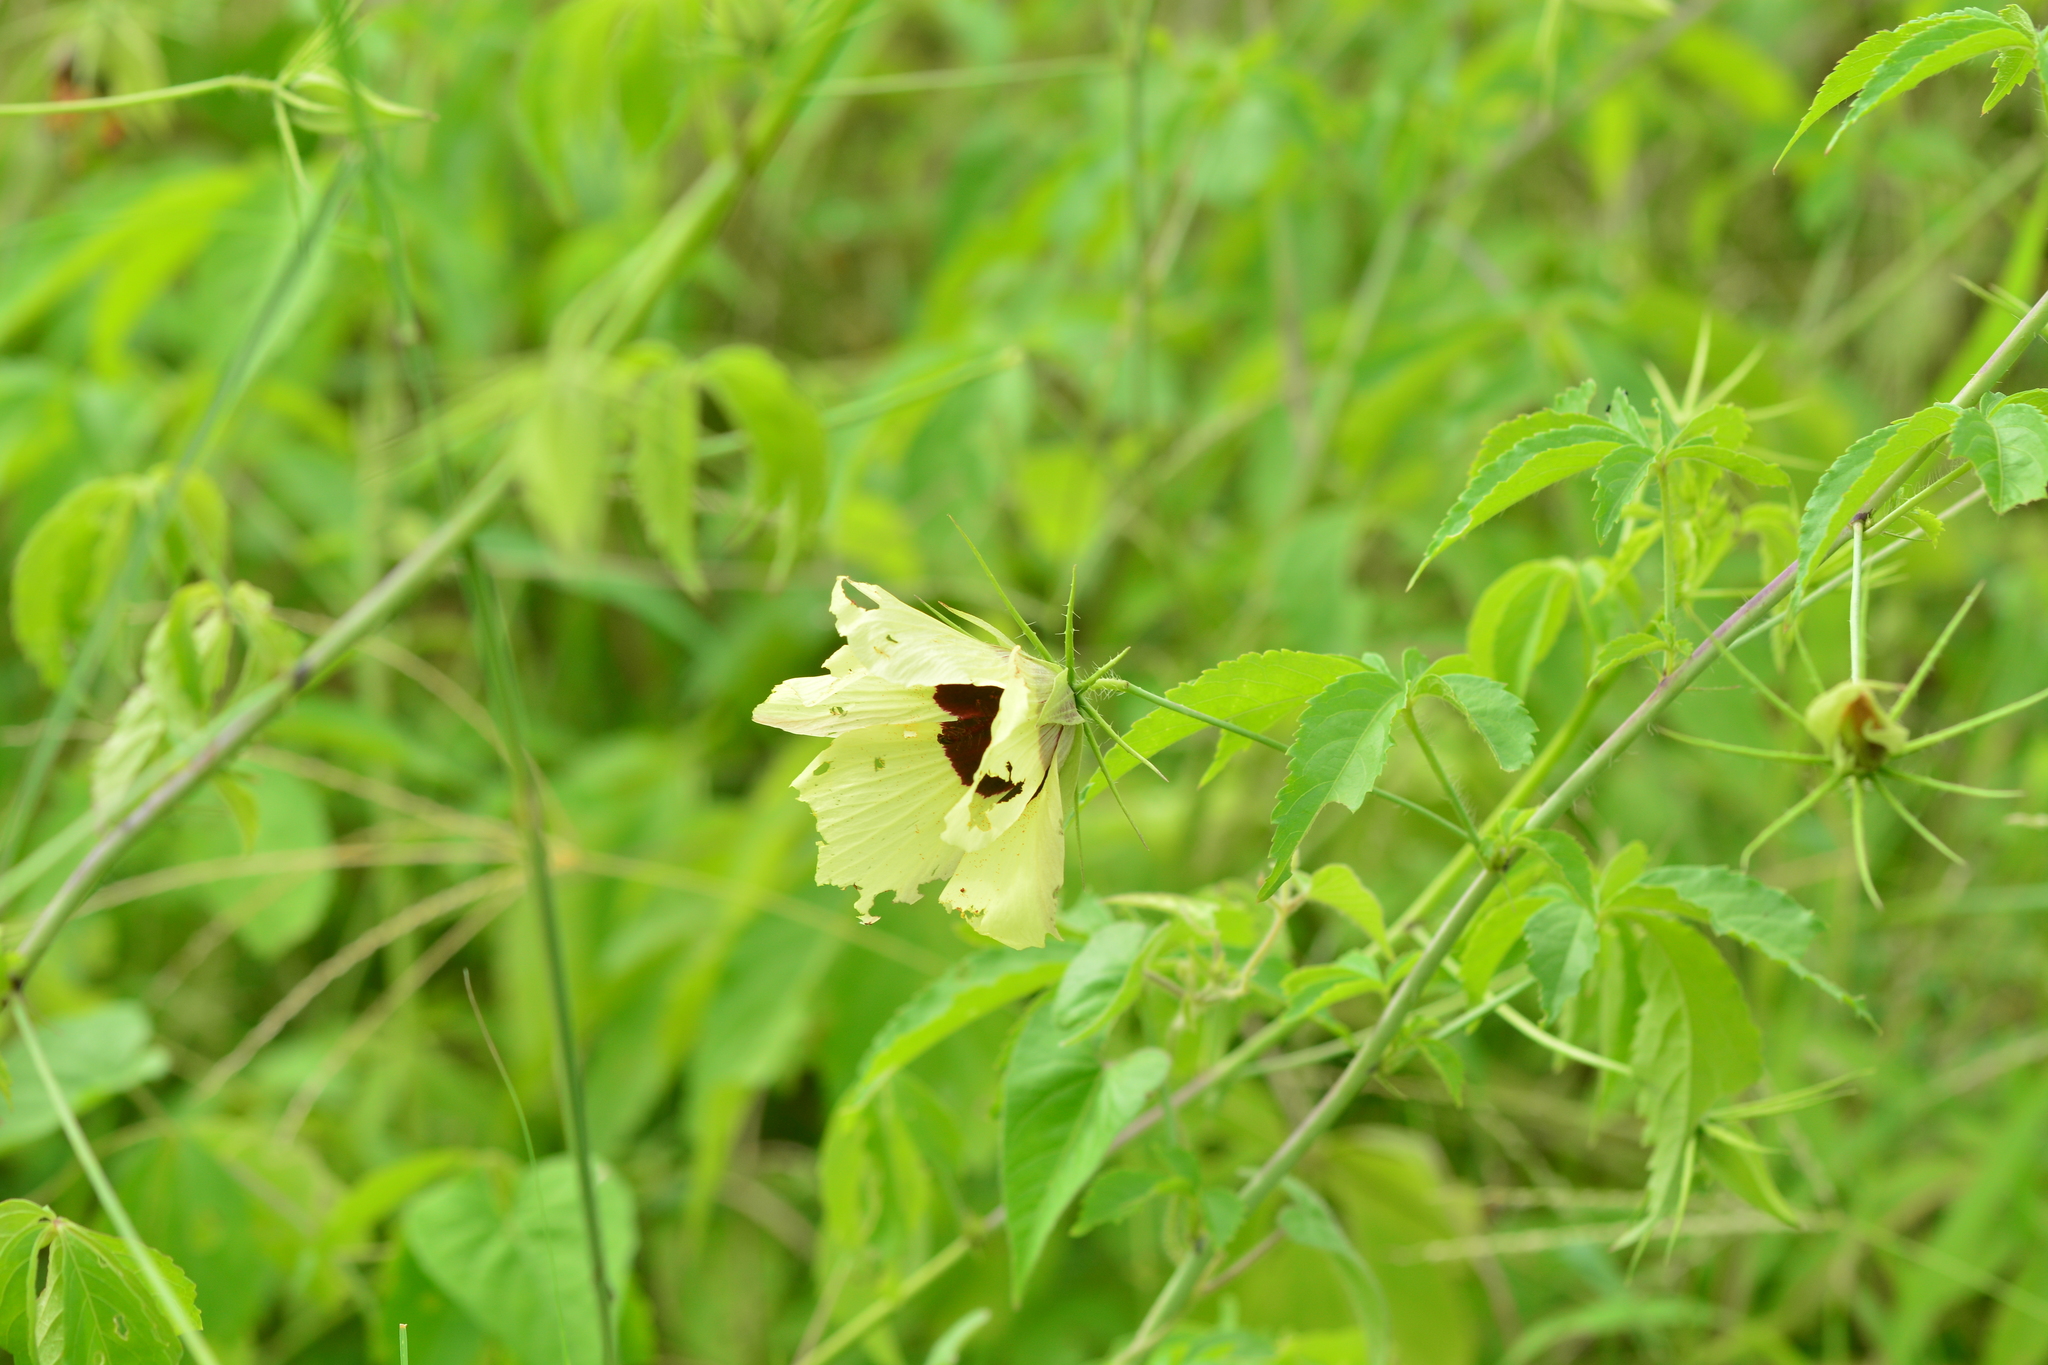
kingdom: Plantae
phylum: Tracheophyta
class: Magnoliopsida
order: Malvales
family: Malvaceae
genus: Hibiscus
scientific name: Hibiscus caesius
